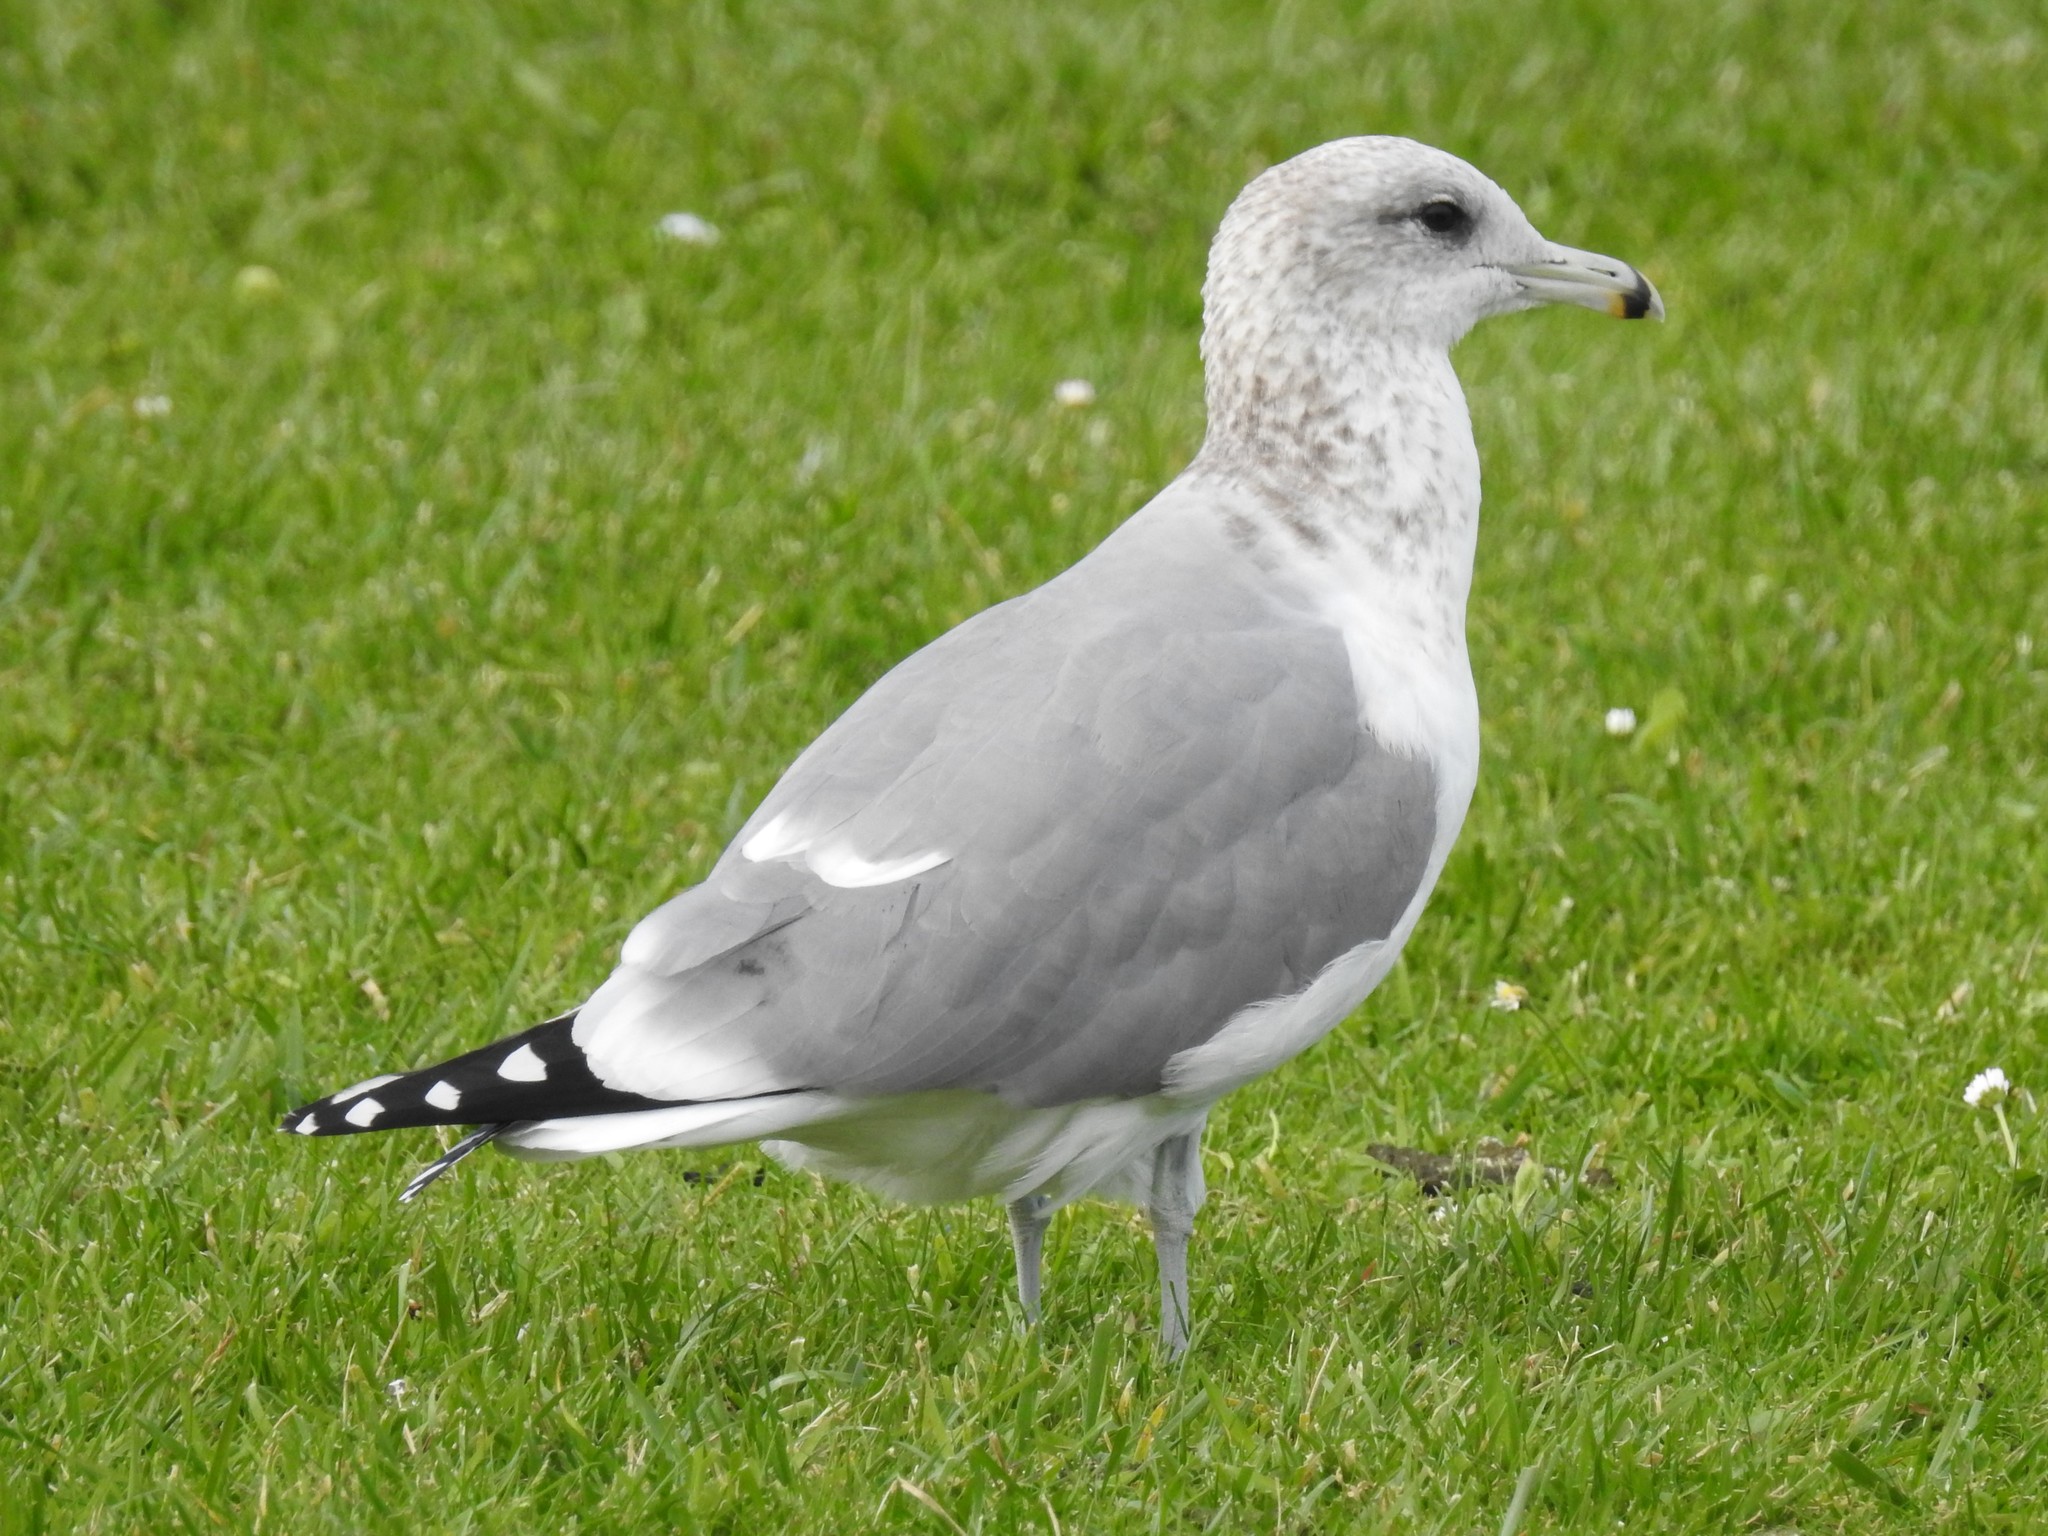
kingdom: Animalia
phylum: Chordata
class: Aves
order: Charadriiformes
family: Laridae
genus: Larus
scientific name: Larus californicus
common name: California gull
